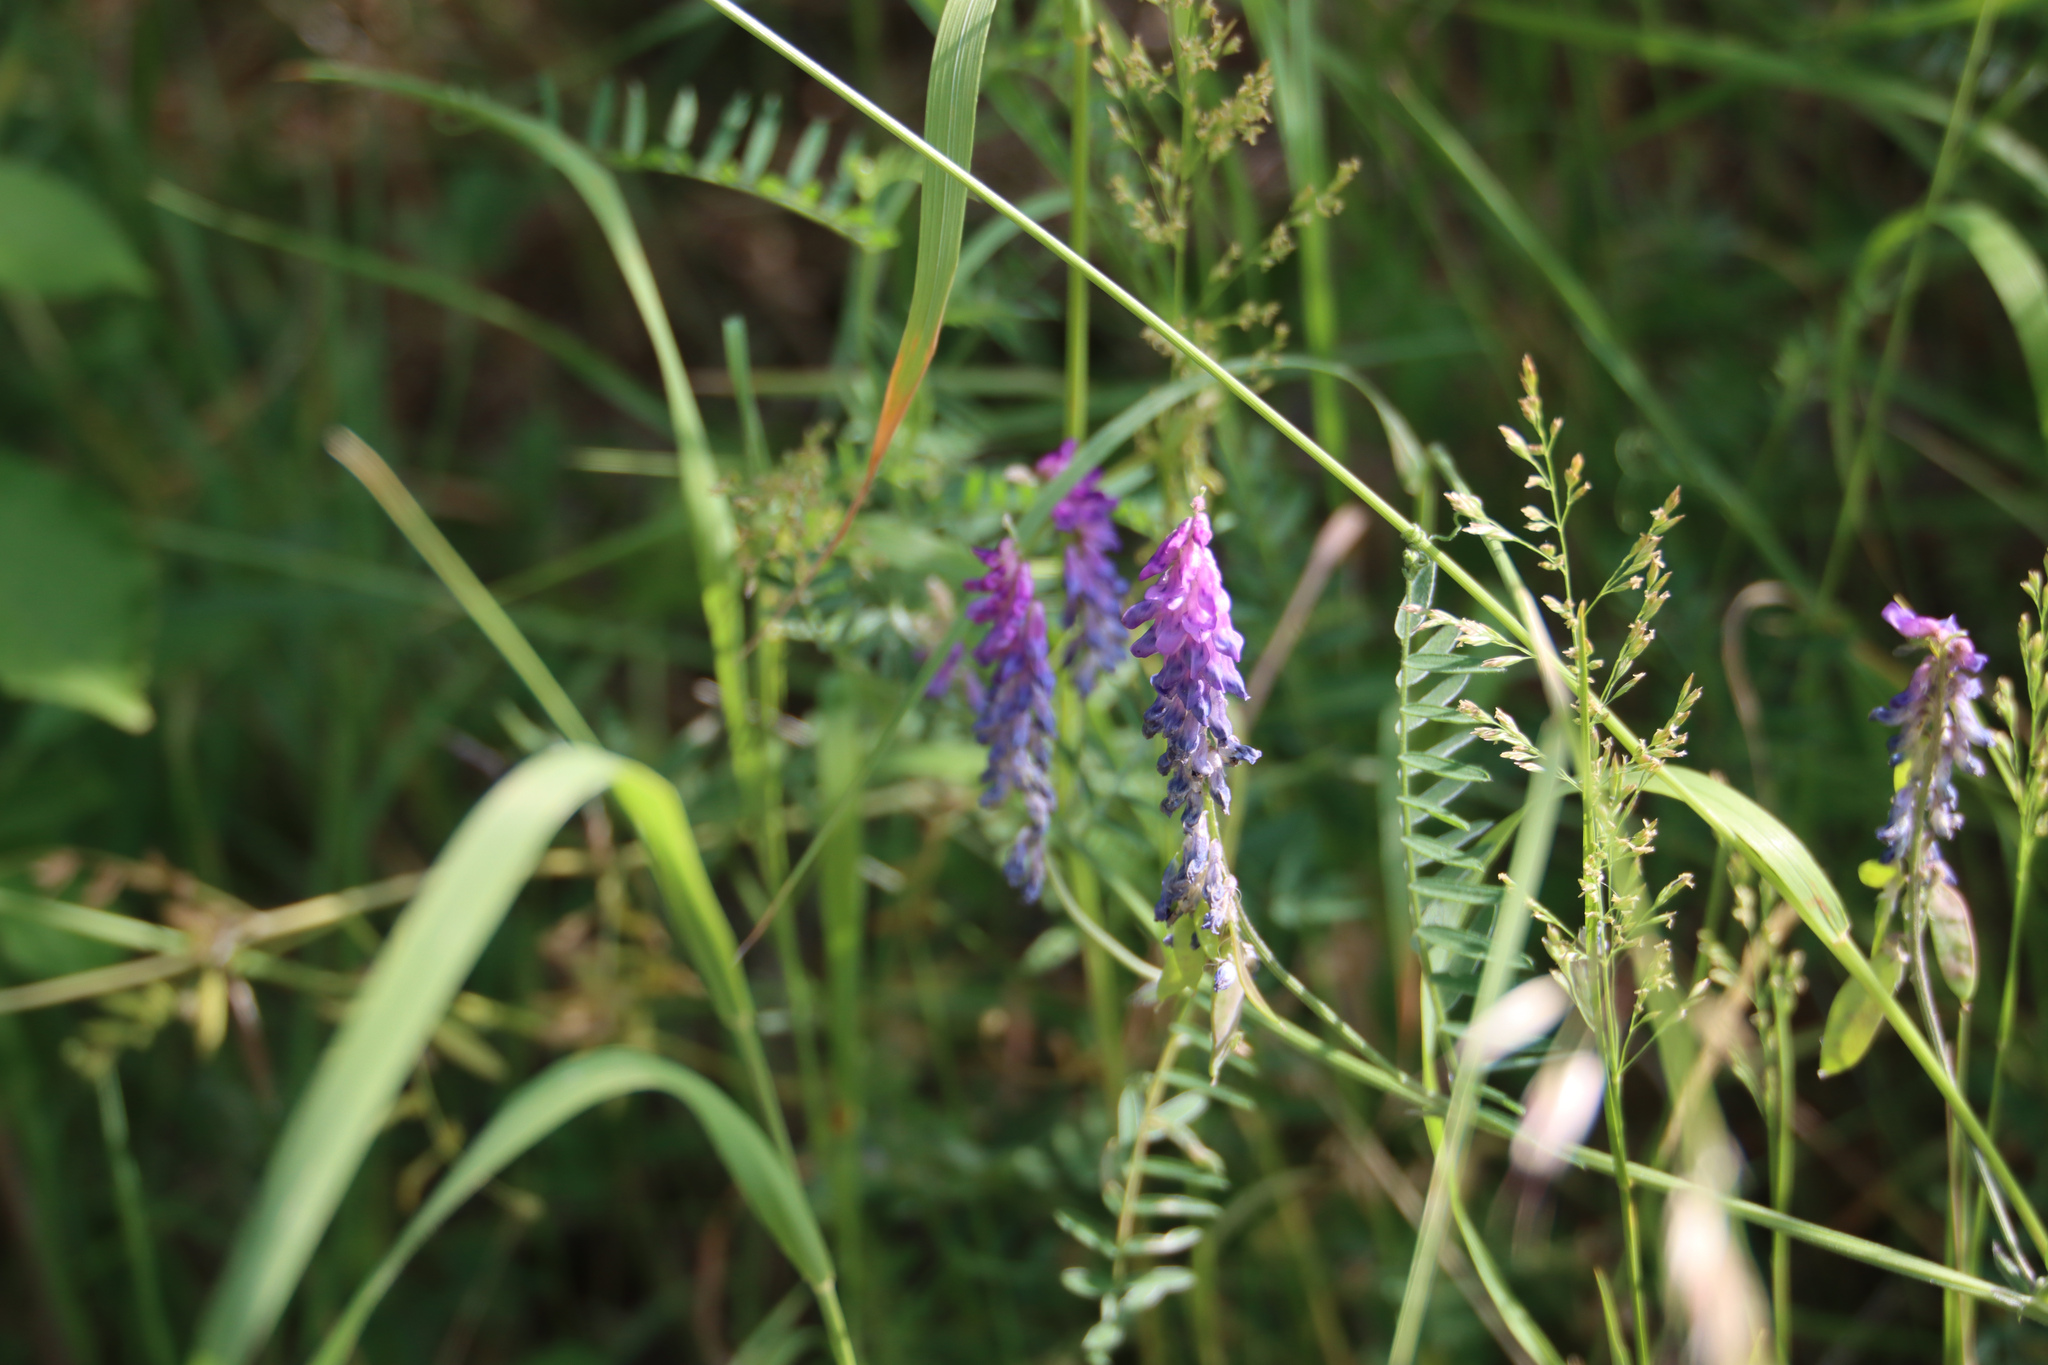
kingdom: Plantae
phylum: Tracheophyta
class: Magnoliopsida
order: Fabales
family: Fabaceae
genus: Vicia
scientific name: Vicia cracca
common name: Bird vetch
